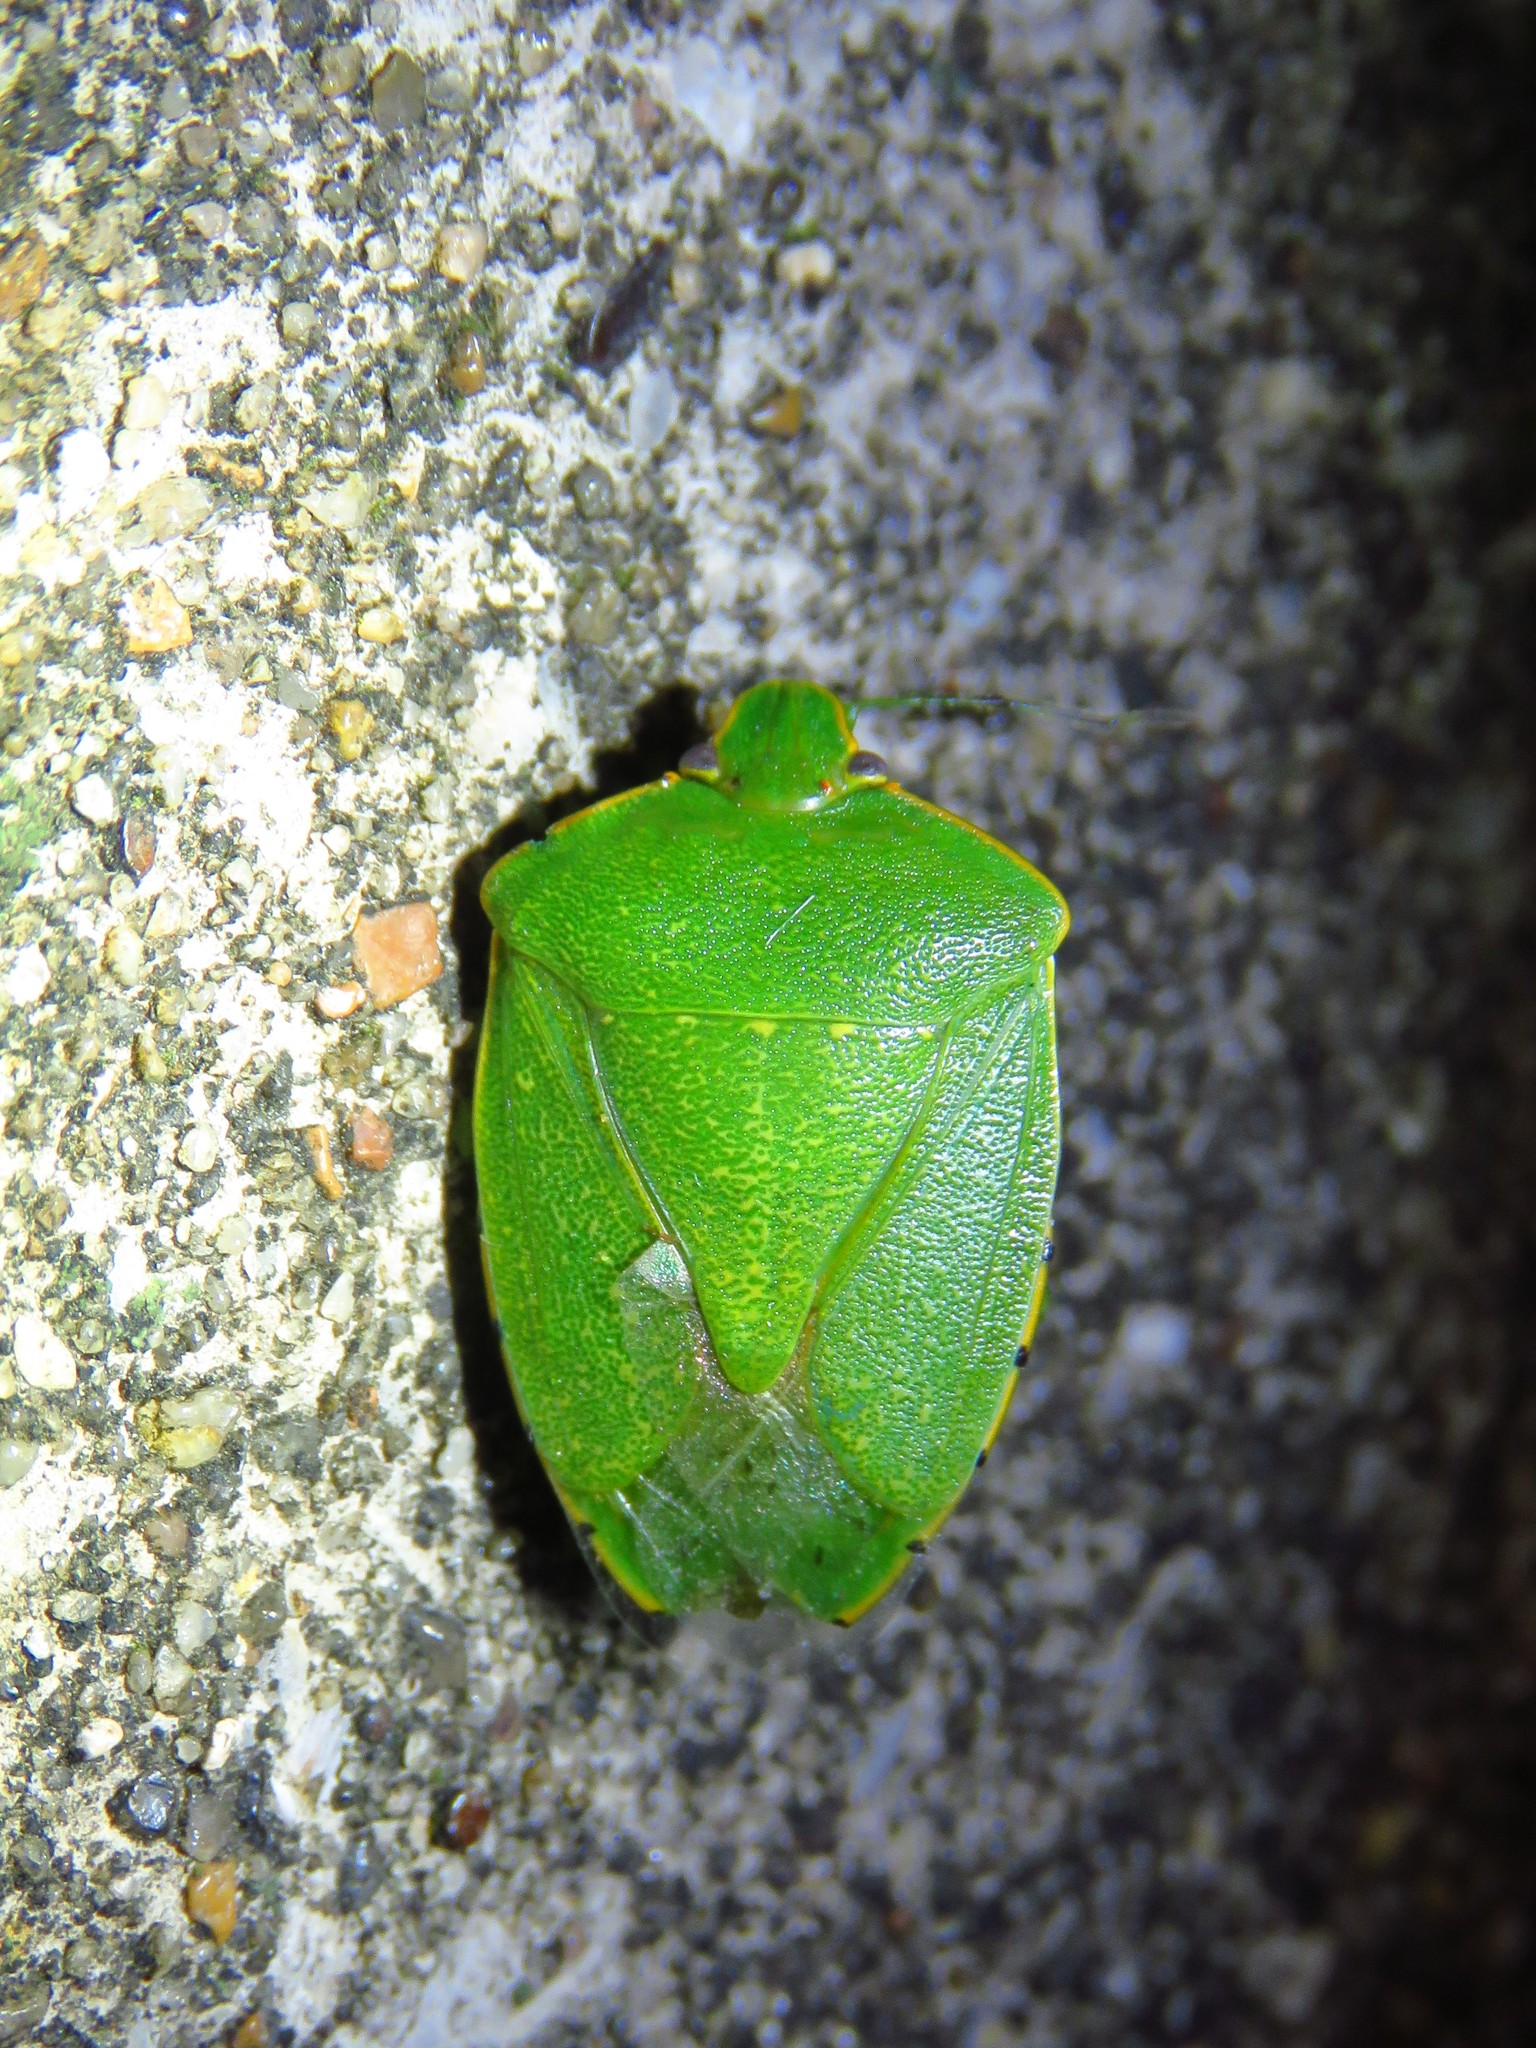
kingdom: Animalia
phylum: Arthropoda
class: Insecta
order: Hemiptera
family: Pentatomidae
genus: Chinavia
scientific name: Chinavia hilaris
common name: Green stink bug
